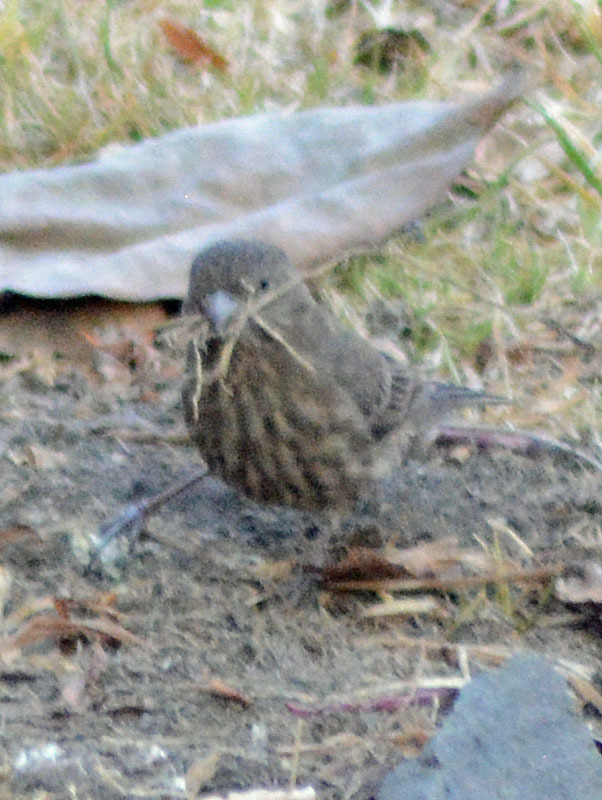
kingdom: Animalia
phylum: Chordata
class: Aves
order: Passeriformes
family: Fringillidae
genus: Haemorhous
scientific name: Haemorhous mexicanus
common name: House finch
